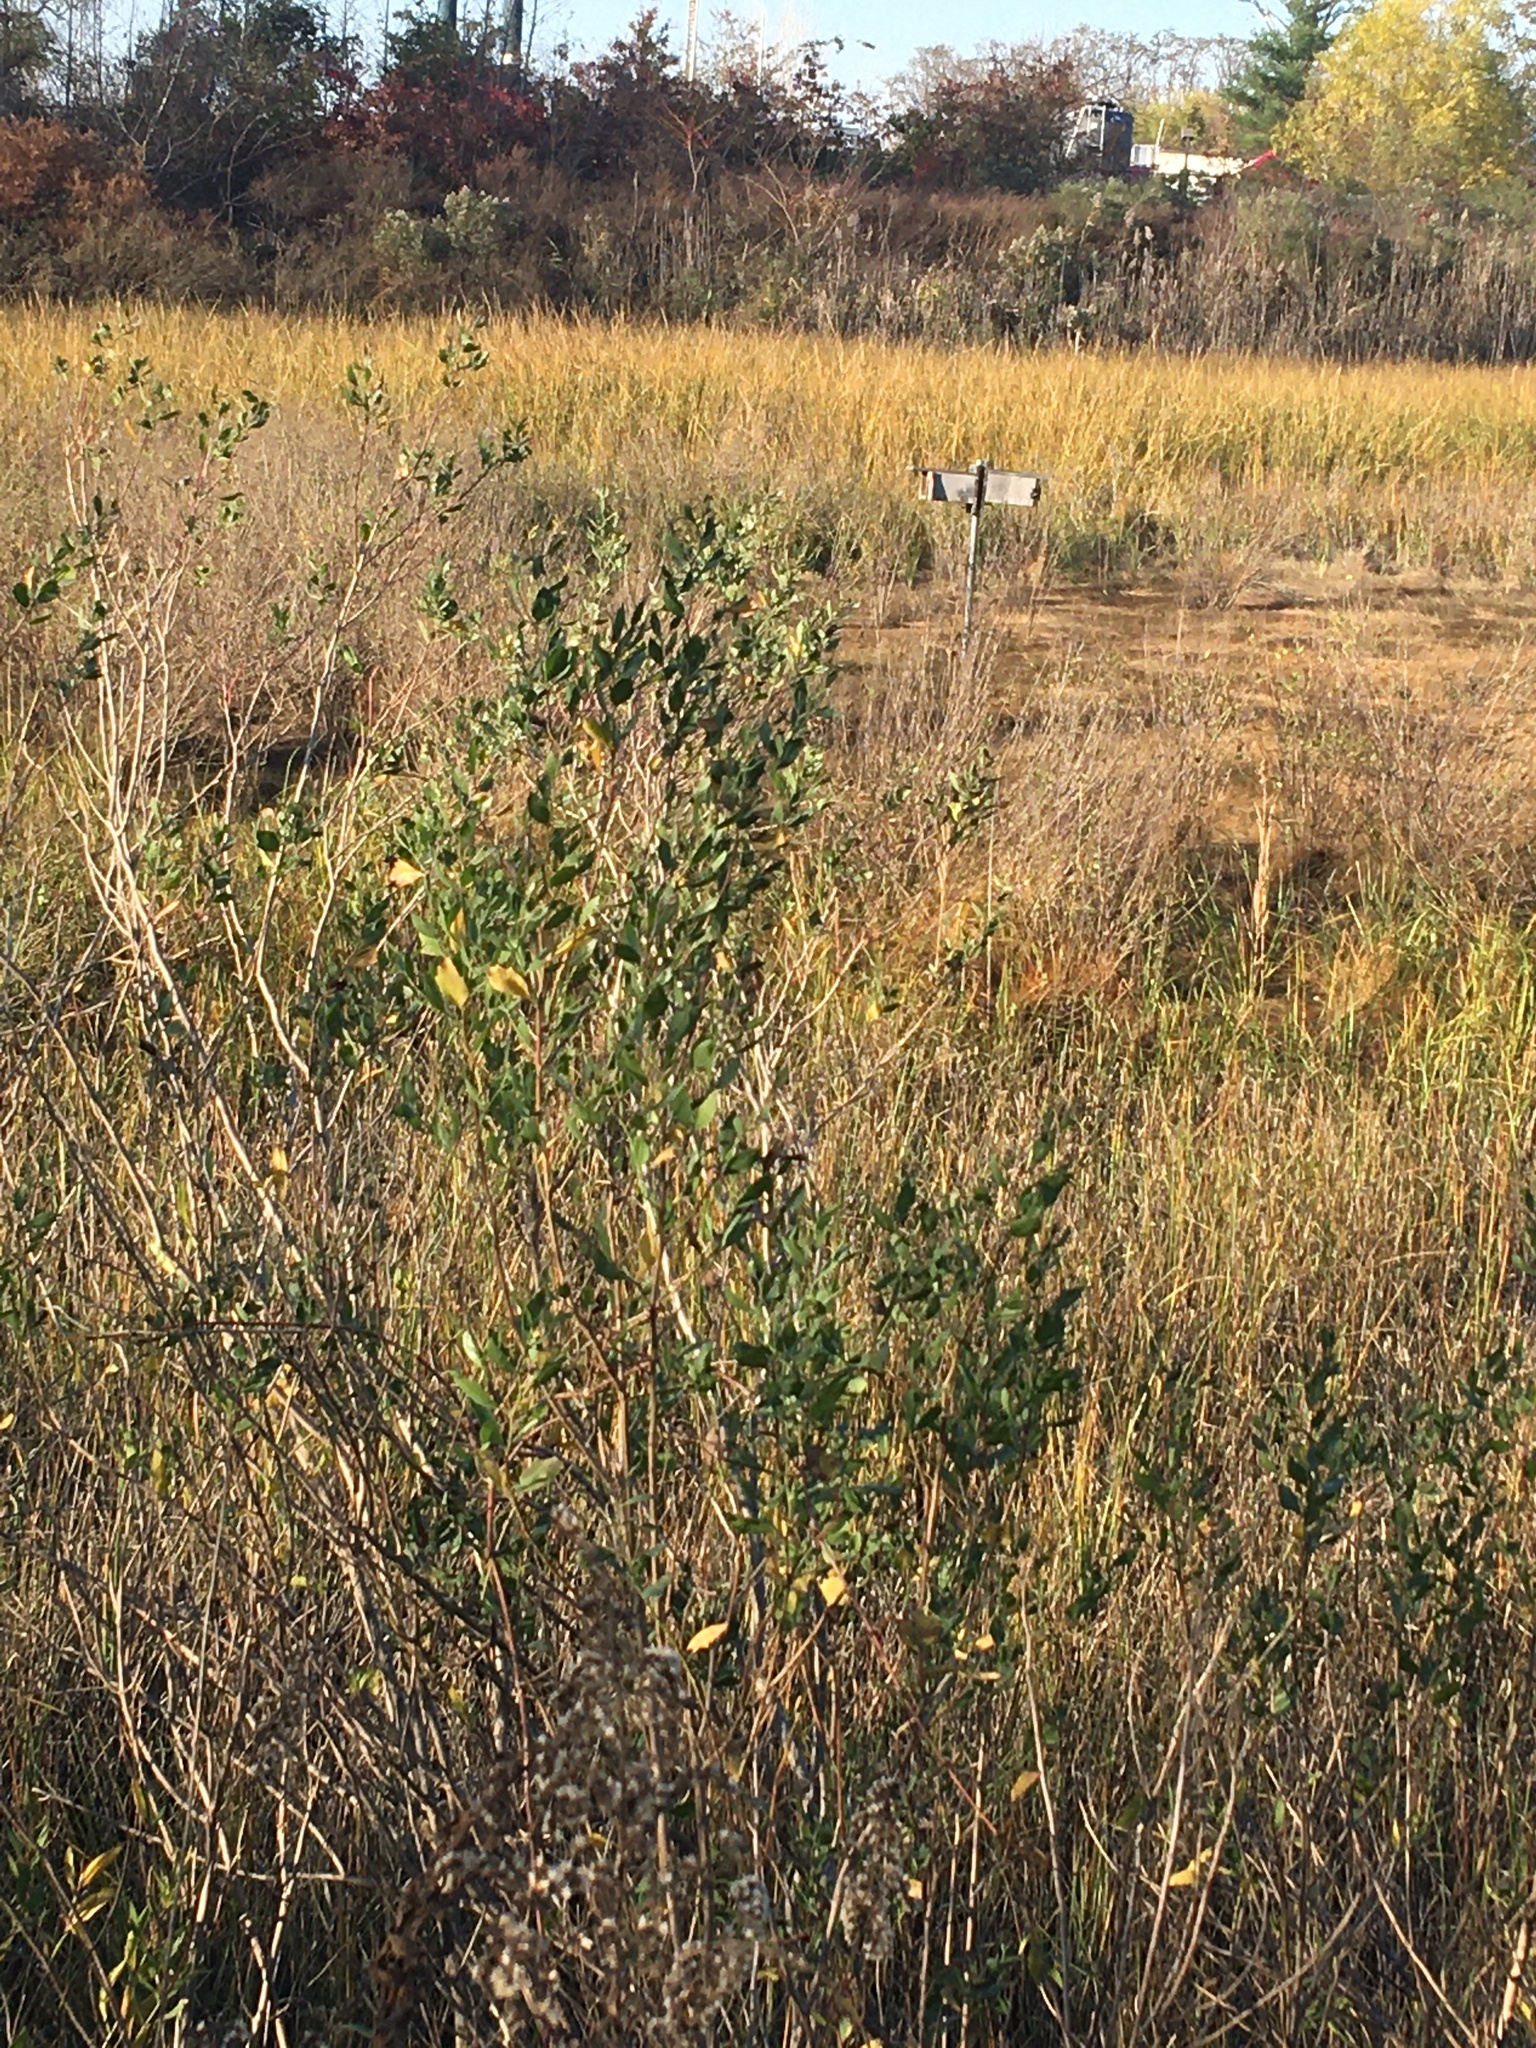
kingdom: Plantae
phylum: Tracheophyta
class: Magnoliopsida
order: Asterales
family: Asteraceae
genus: Baccharis
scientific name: Baccharis halimifolia
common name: Eastern baccharis
